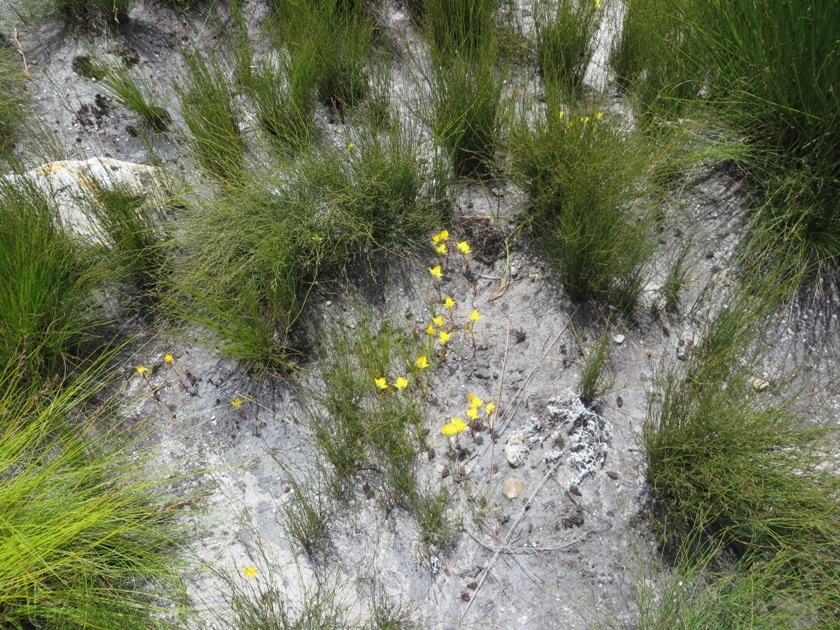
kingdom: Plantae
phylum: Tracheophyta
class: Liliopsida
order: Asparagales
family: Orchidaceae
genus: Disa
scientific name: Disa tenuifolia
